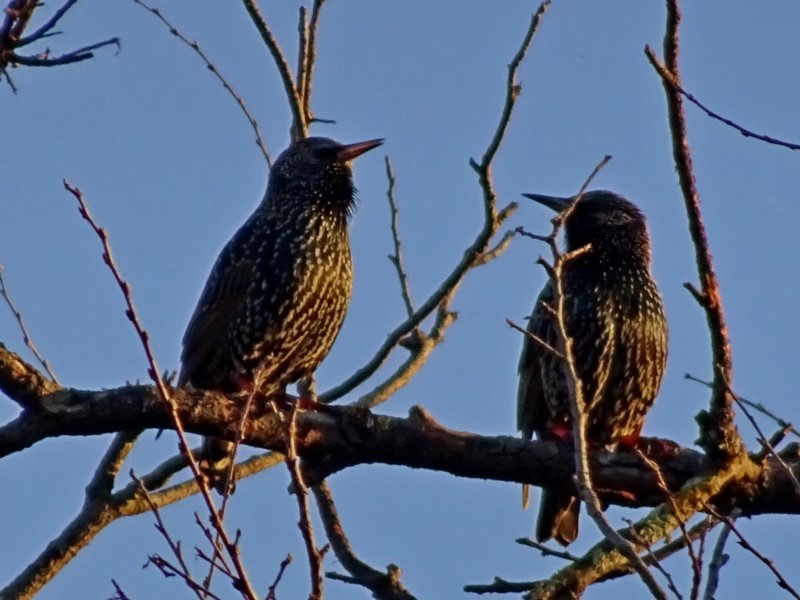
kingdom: Animalia
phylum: Chordata
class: Aves
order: Passeriformes
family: Sturnidae
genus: Sturnus
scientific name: Sturnus vulgaris
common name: Common starling
